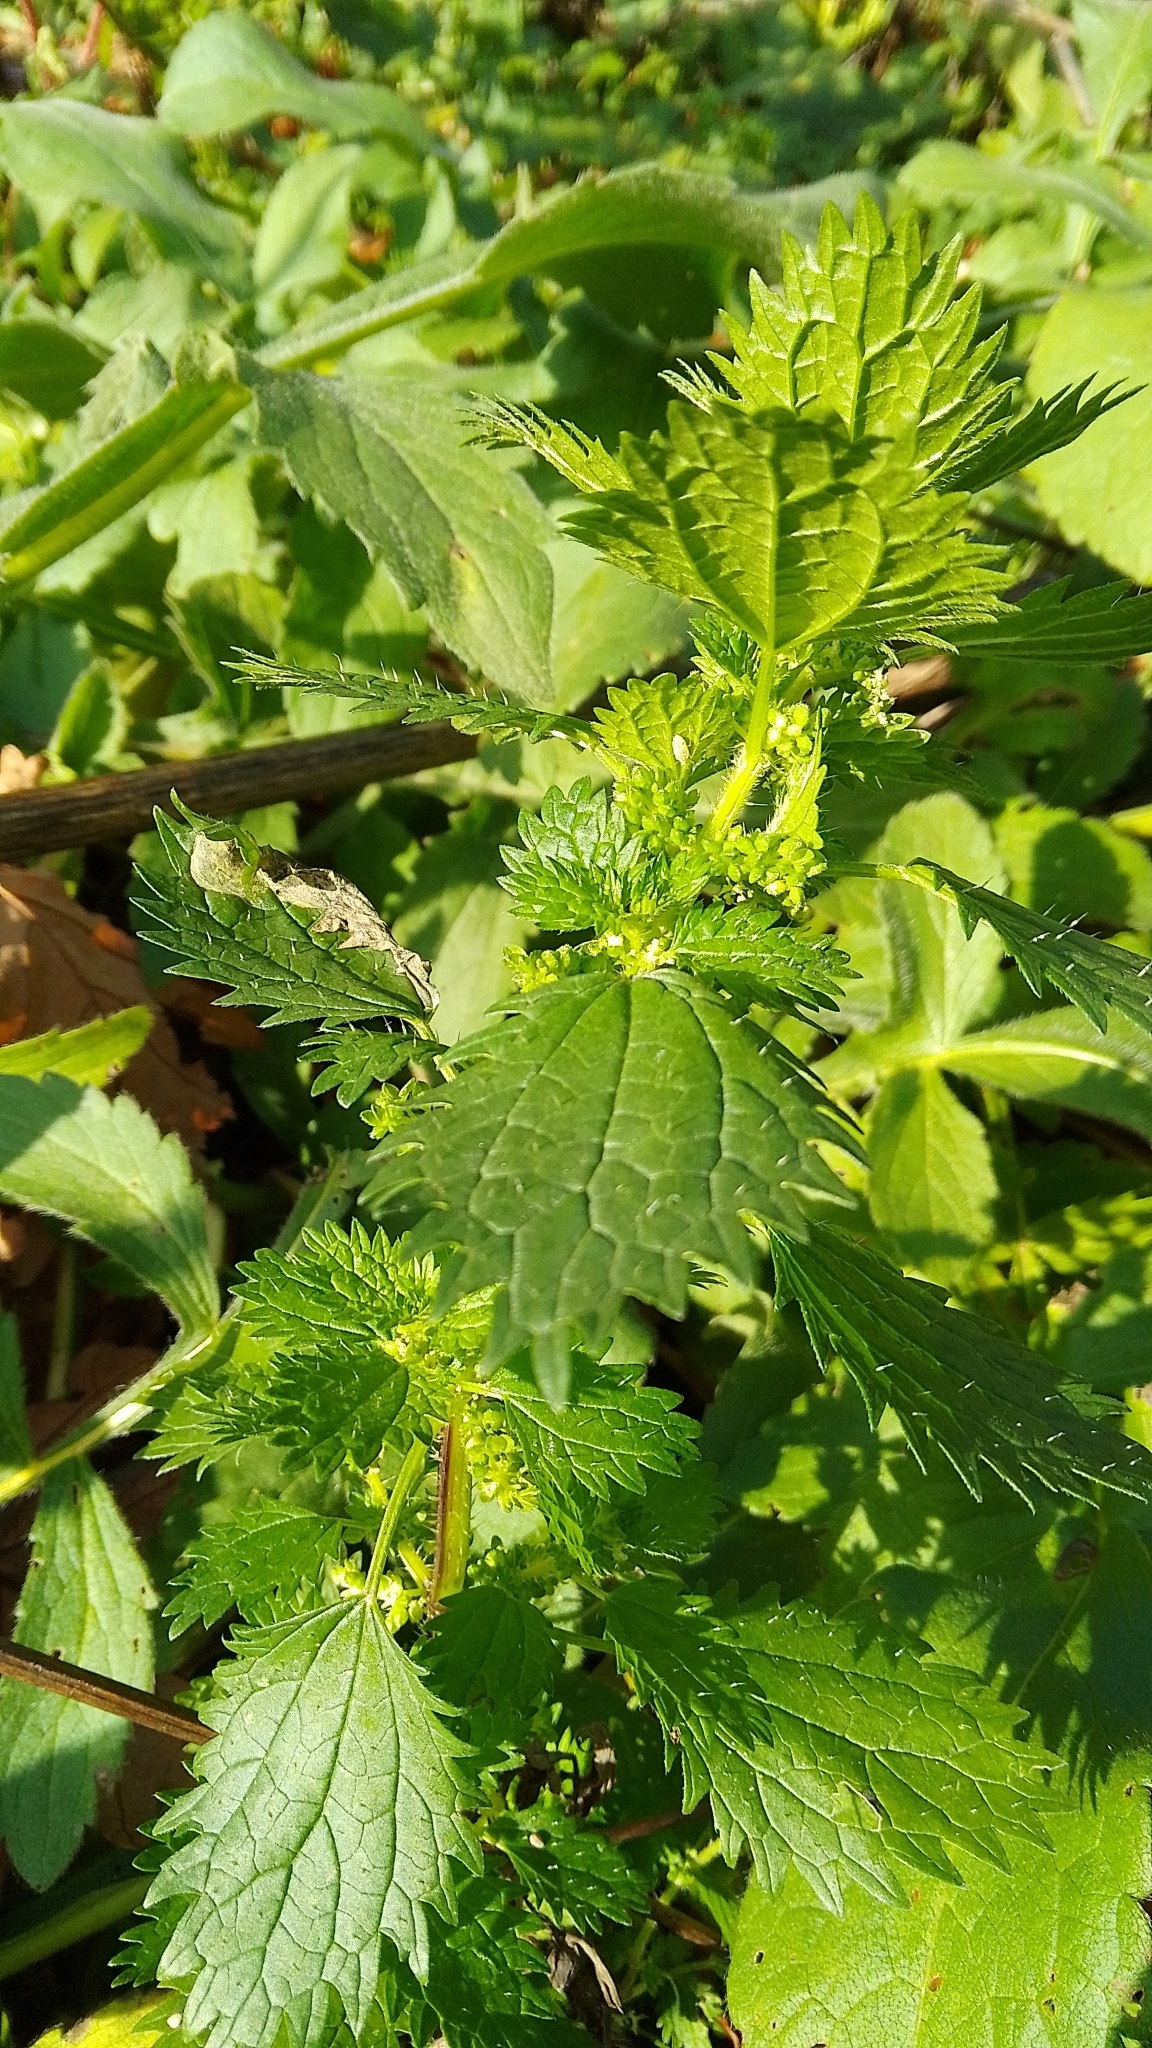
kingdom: Plantae
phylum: Tracheophyta
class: Magnoliopsida
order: Rosales
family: Urticaceae
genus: Urtica
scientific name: Urtica urens
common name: Dwarf nettle
